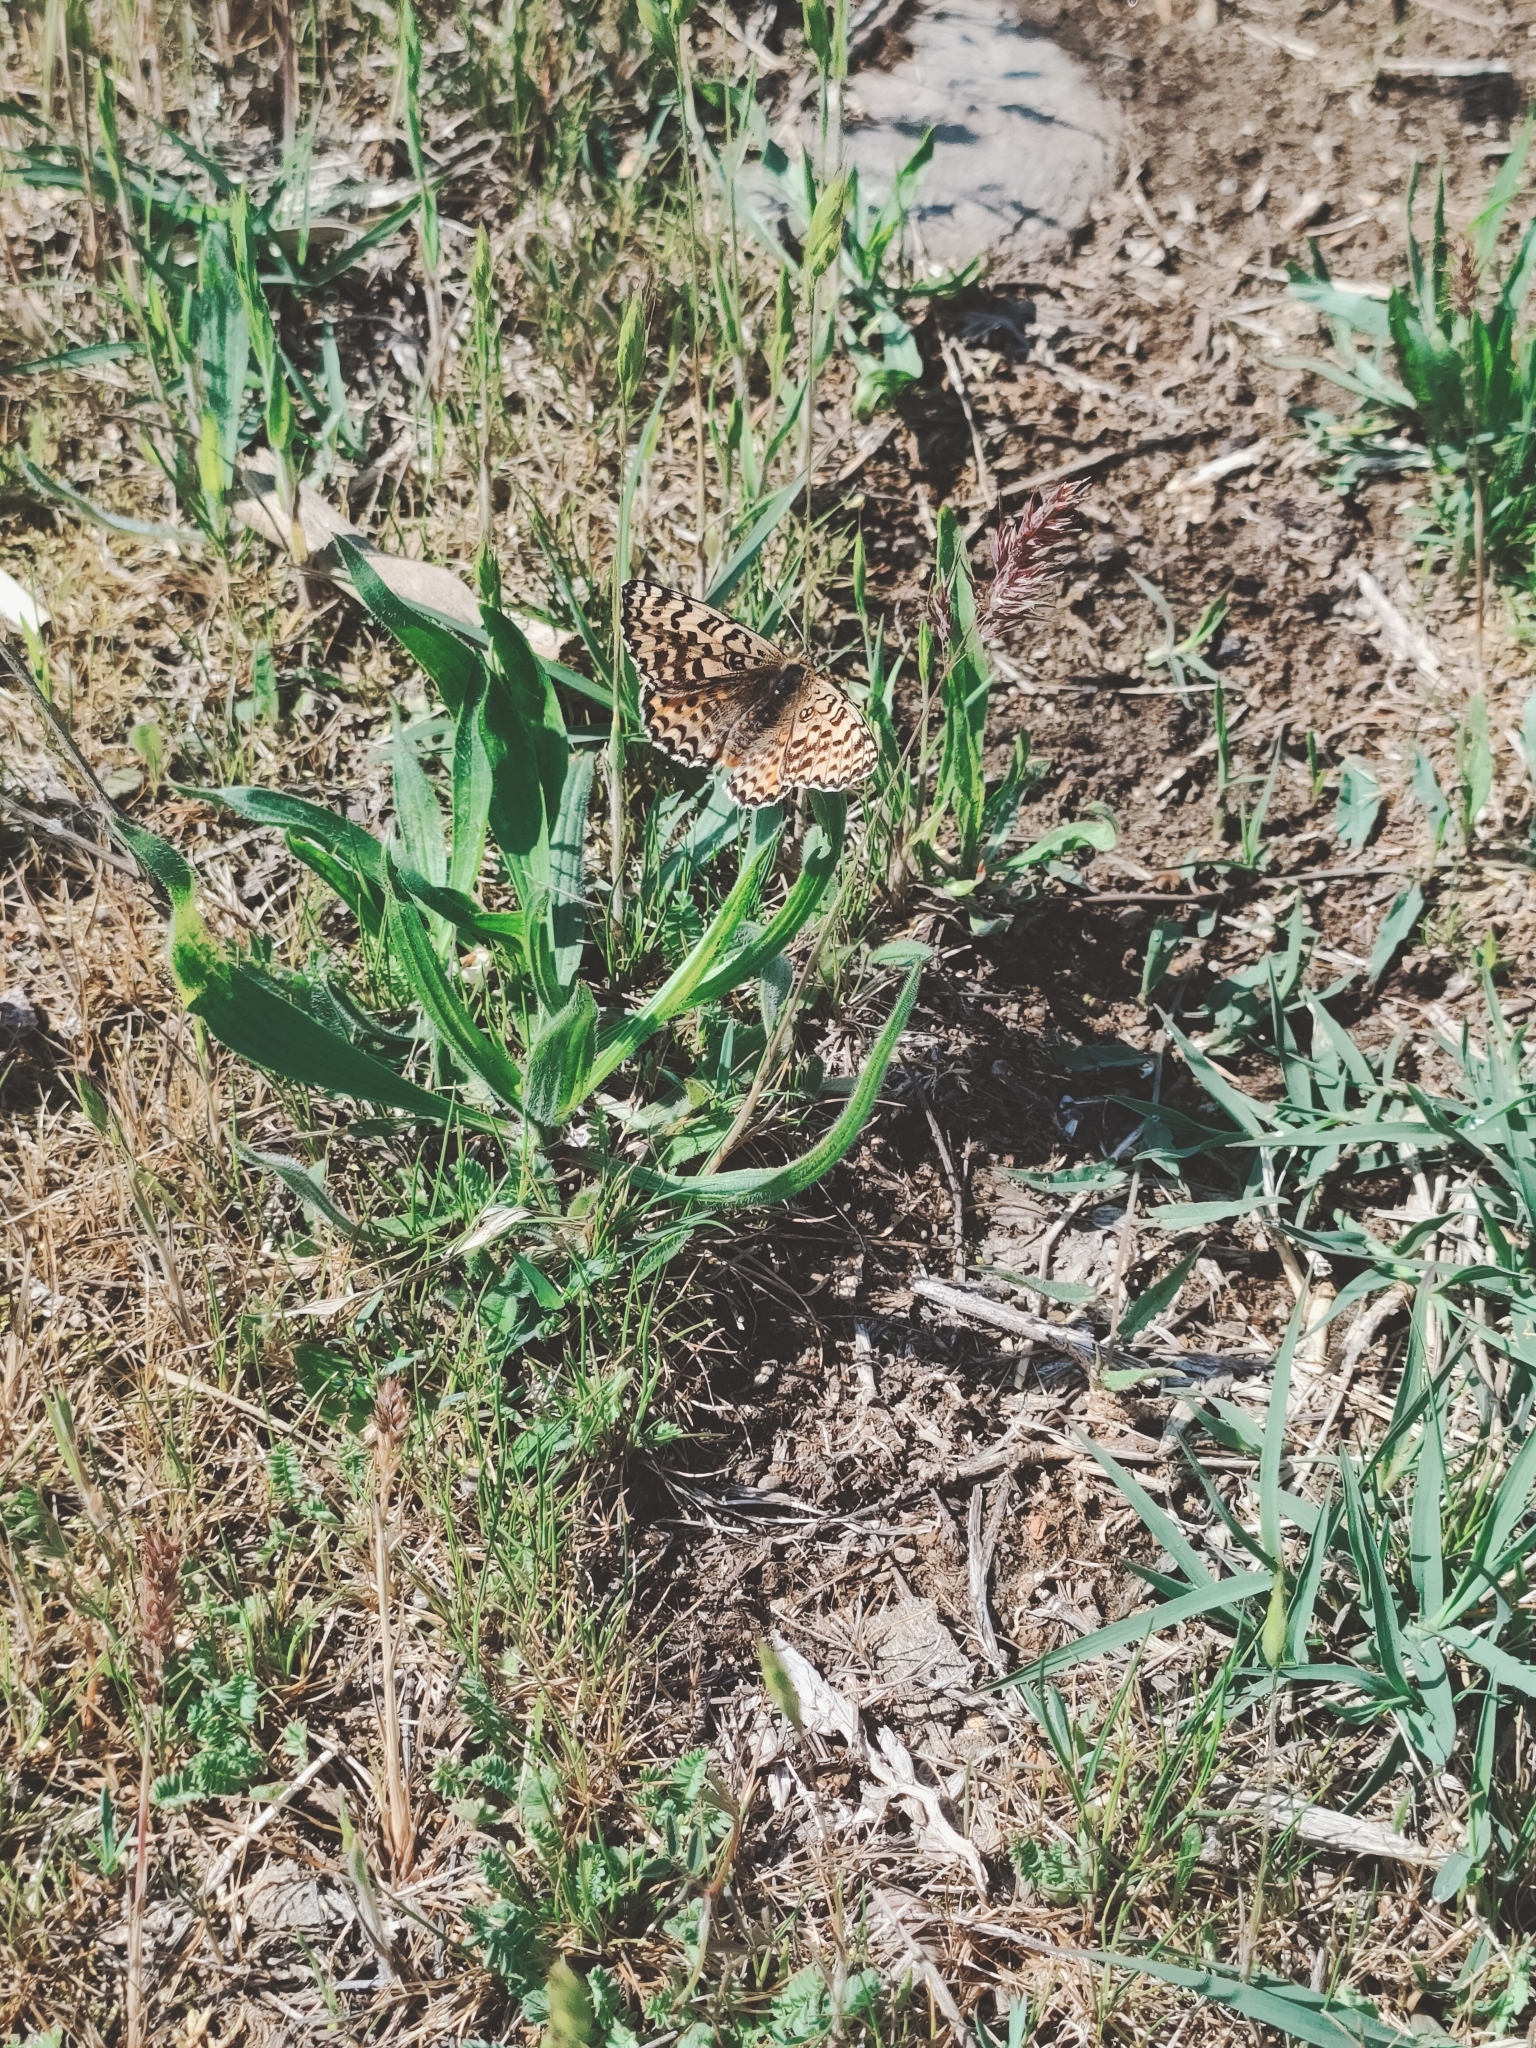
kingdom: Animalia
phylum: Arthropoda
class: Insecta
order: Lepidoptera
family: Nymphalidae
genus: Melitaea
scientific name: Melitaea didyma
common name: Spotted fritillary
